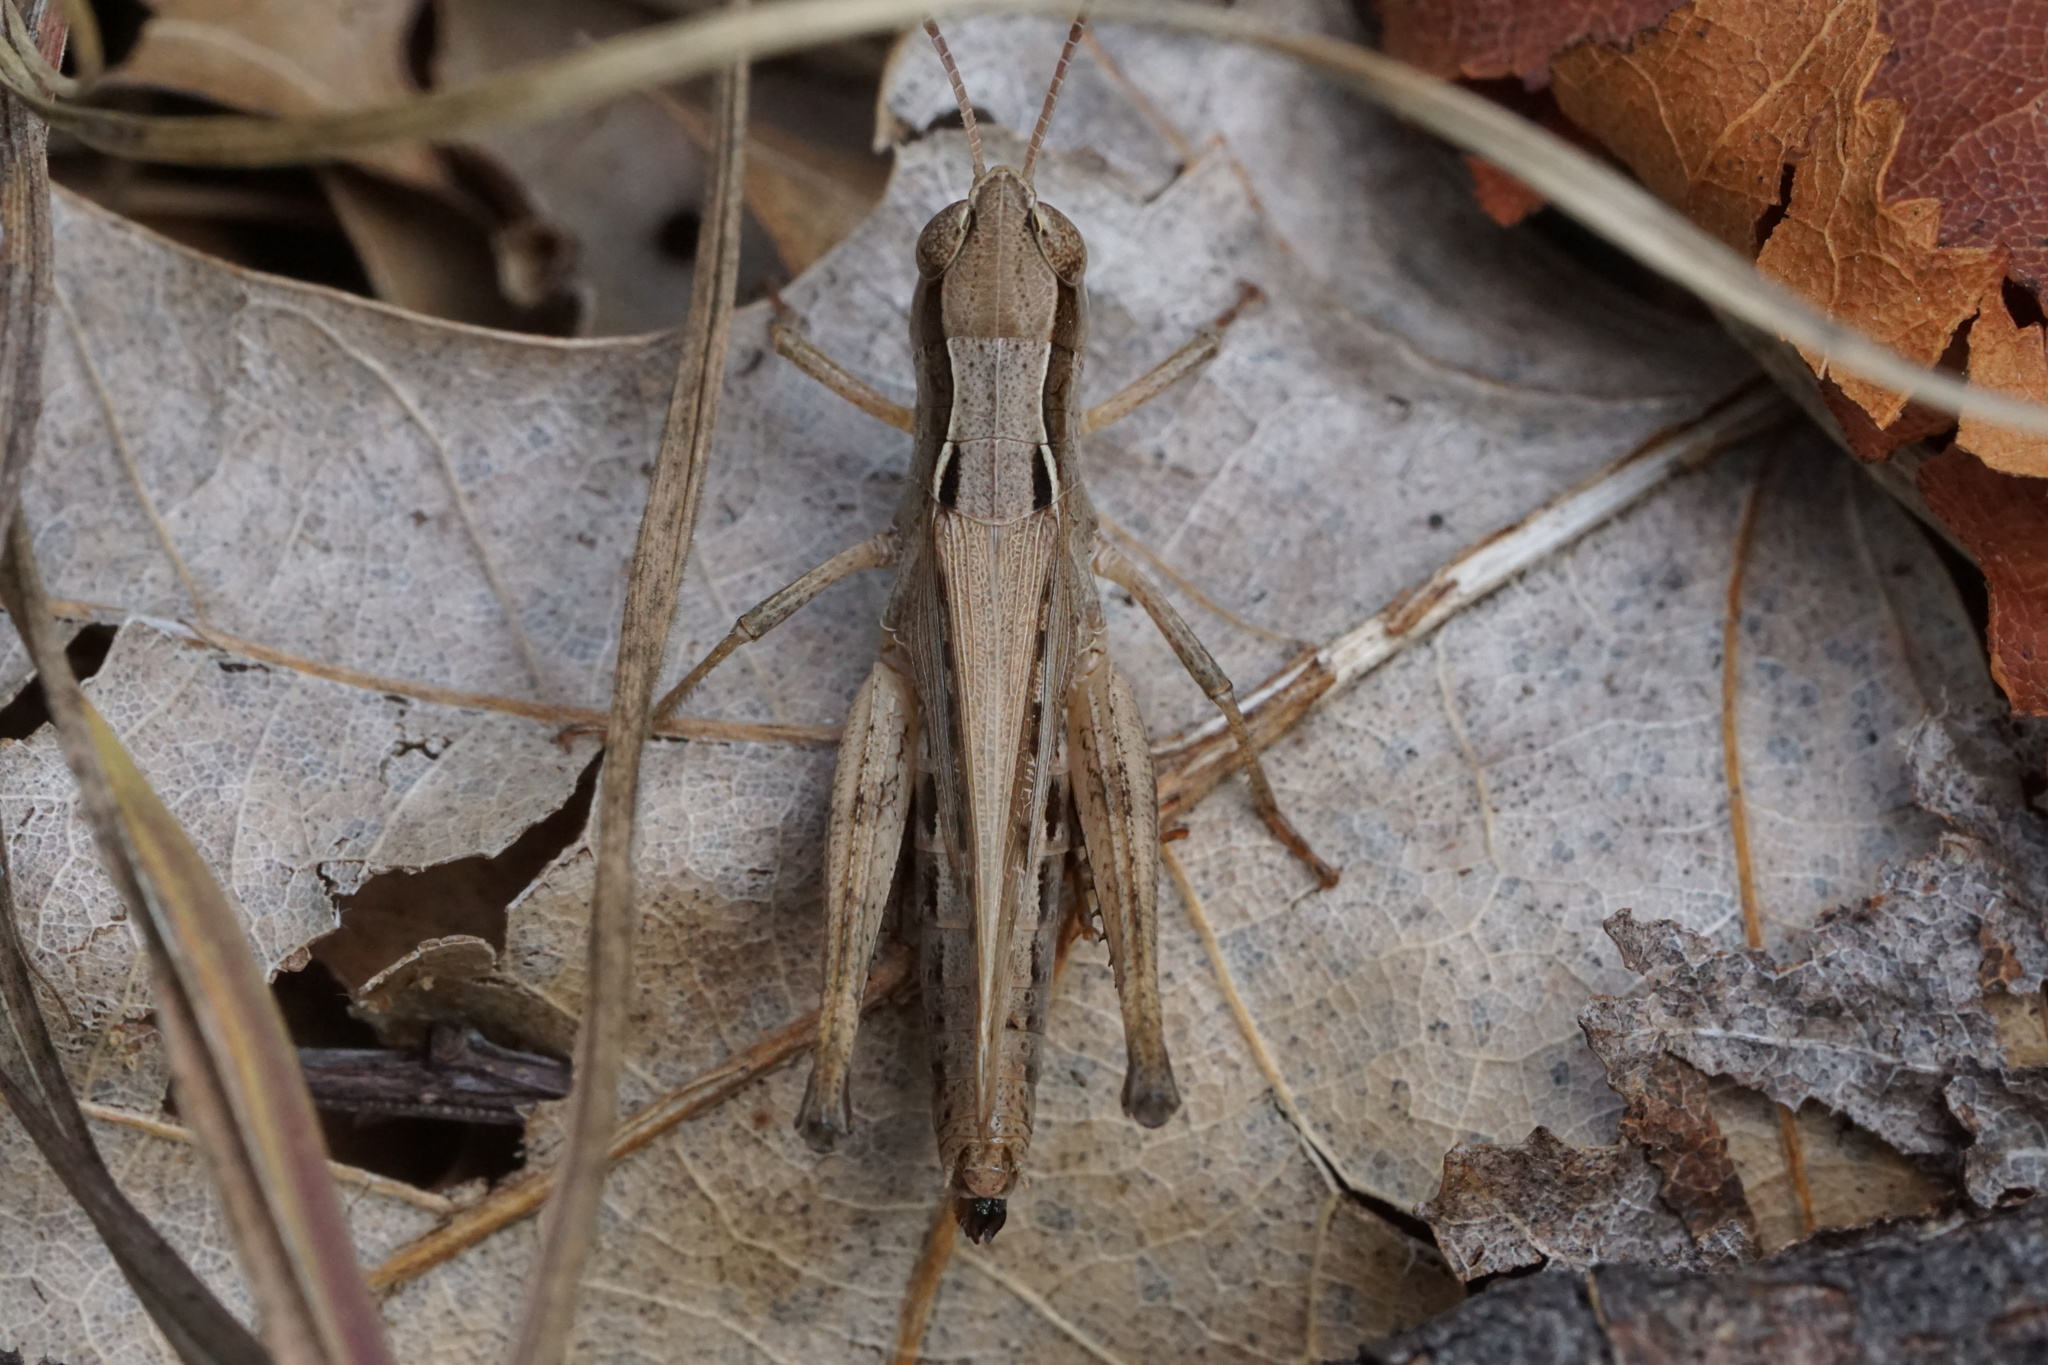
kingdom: Animalia
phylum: Arthropoda
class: Insecta
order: Orthoptera
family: Acrididae
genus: Orphulella
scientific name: Orphulella speciosa
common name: Pasture grasshopper
